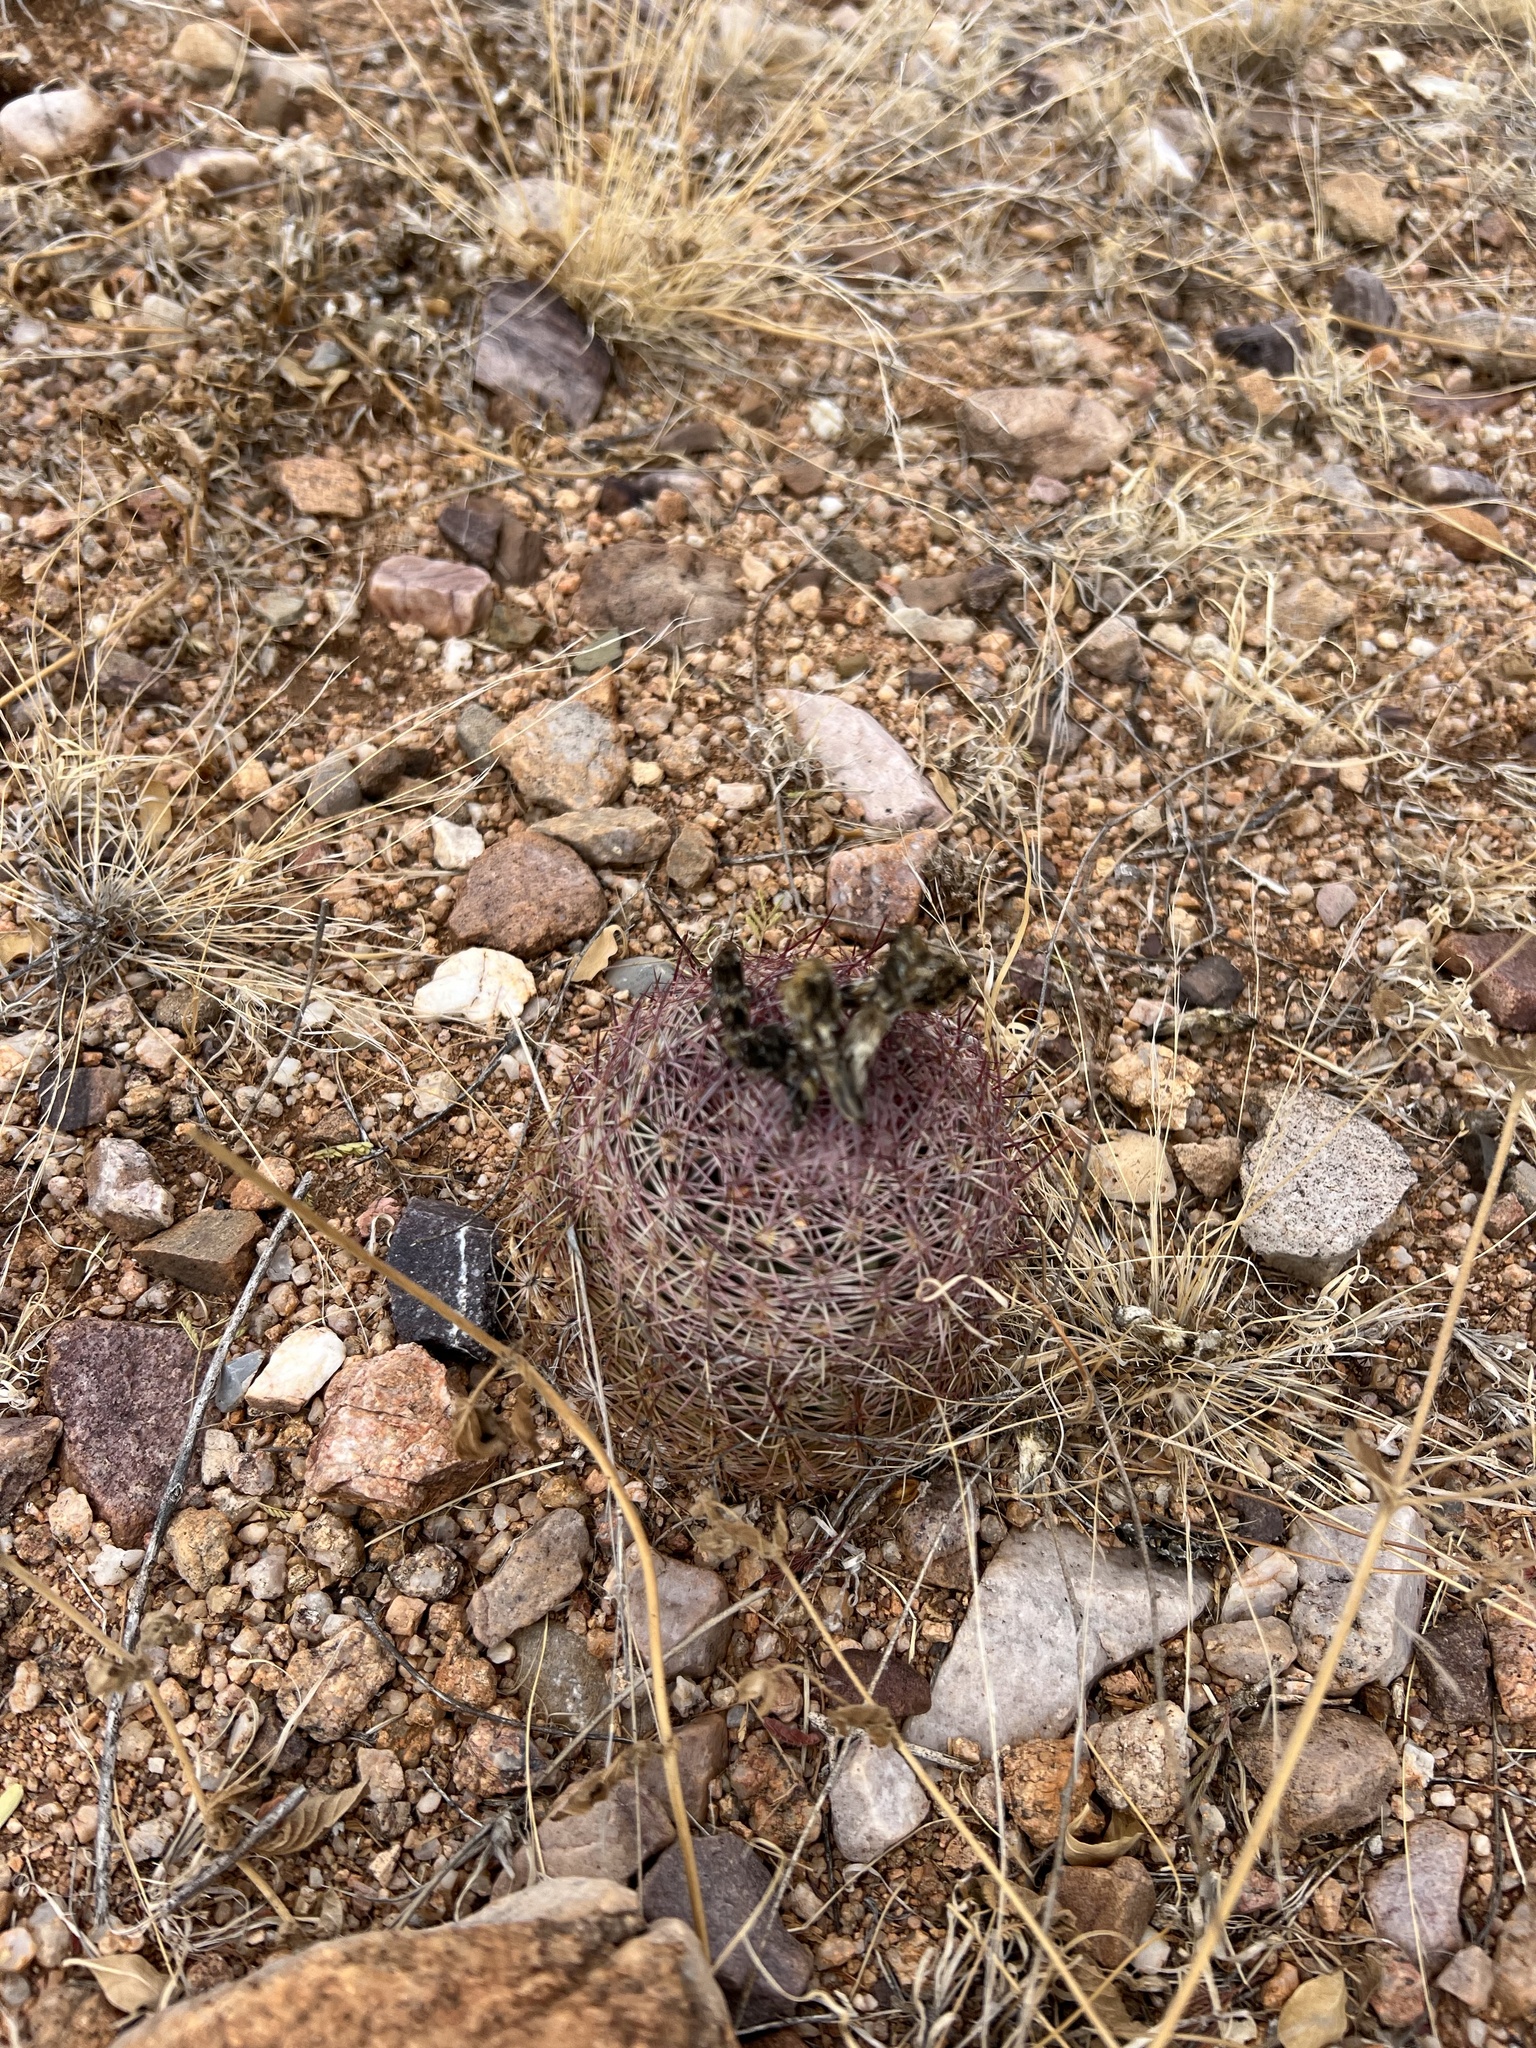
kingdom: Plantae
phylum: Tracheophyta
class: Magnoliopsida
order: Caryophyllales
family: Cactaceae
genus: Sclerocactus
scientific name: Sclerocactus johnsonii
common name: Eight-spine fishhook cactus
